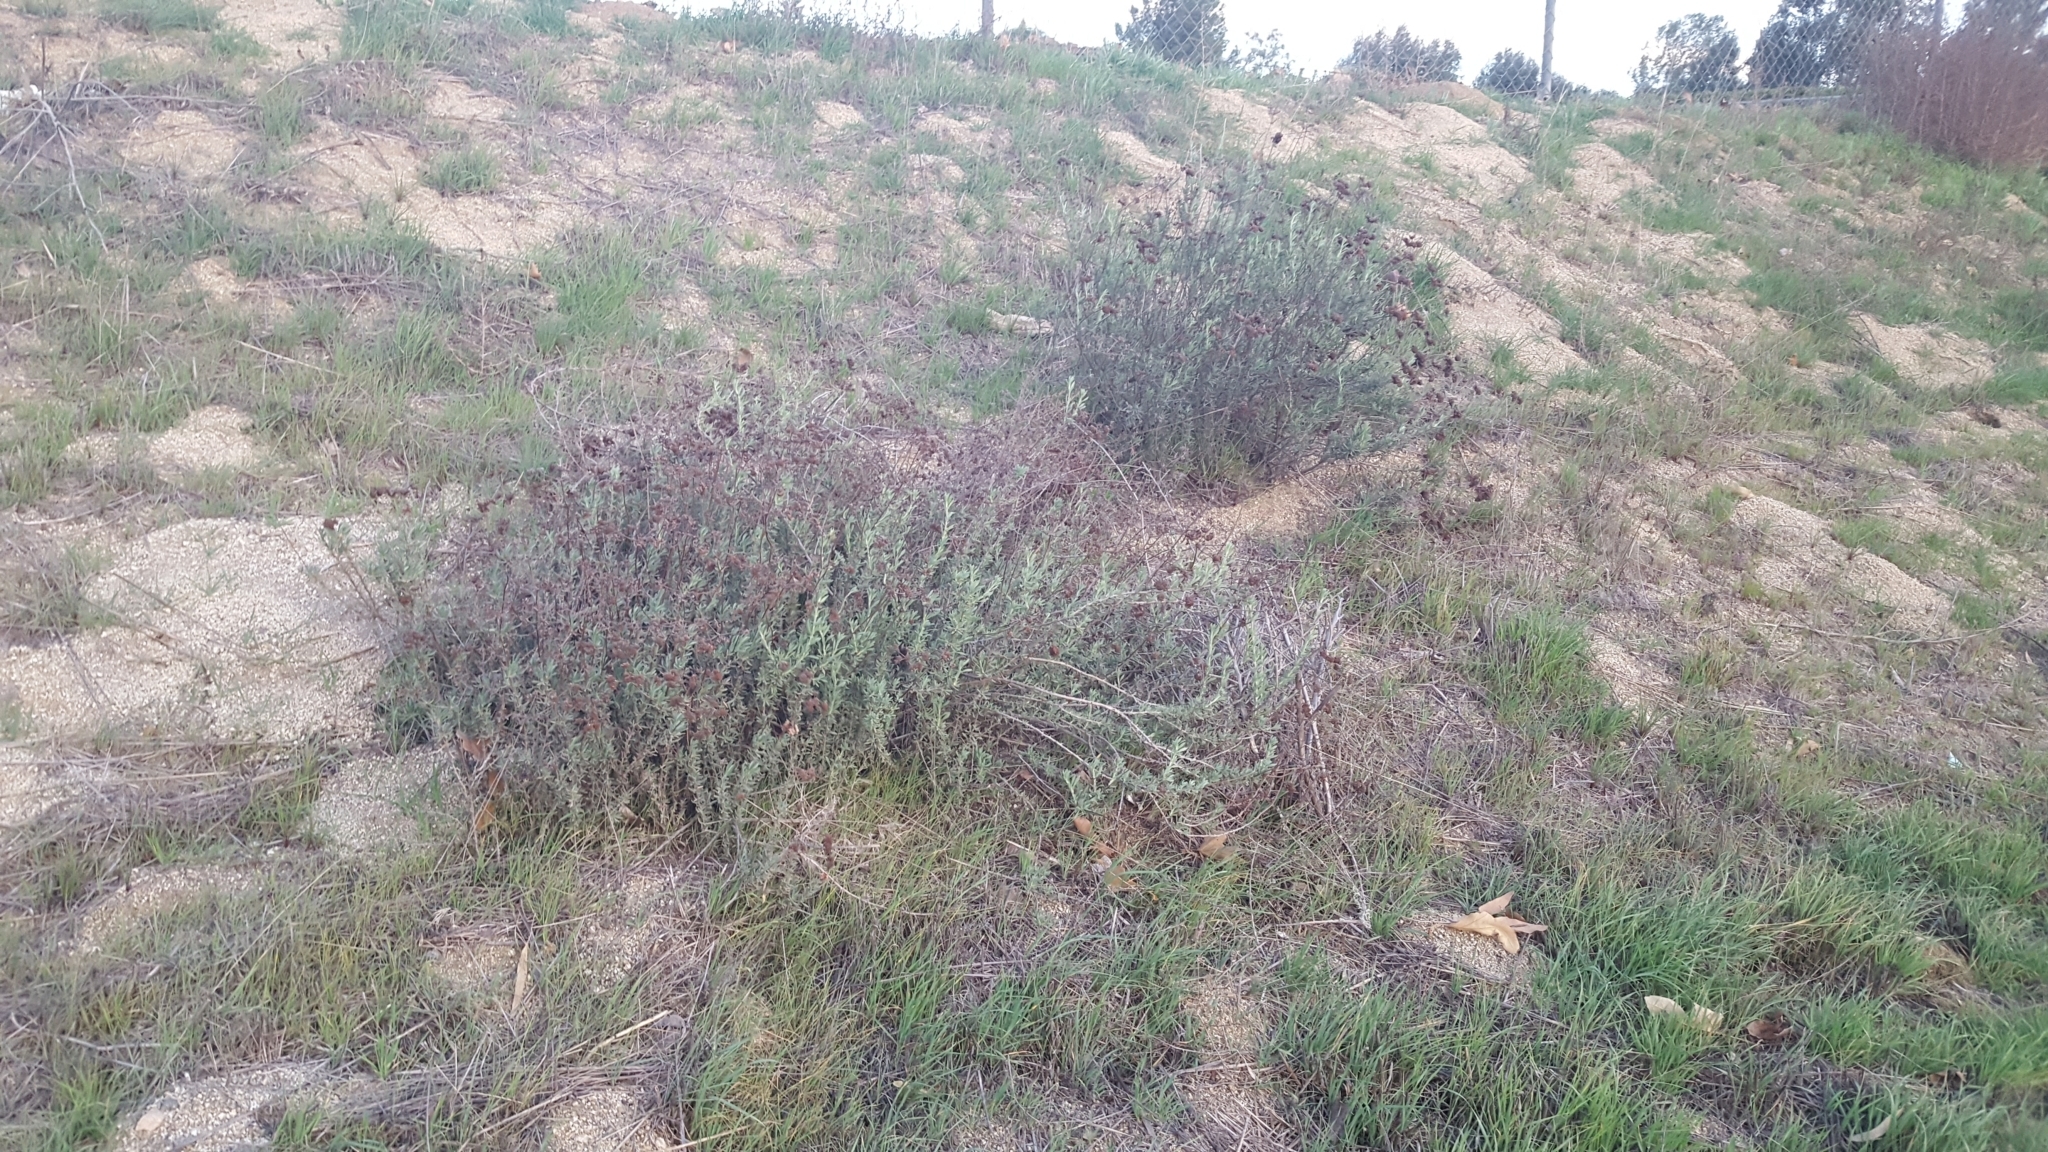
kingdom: Plantae
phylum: Tracheophyta
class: Magnoliopsida
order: Caryophyllales
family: Polygonaceae
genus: Eriogonum
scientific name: Eriogonum fasciculatum
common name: California wild buckwheat
